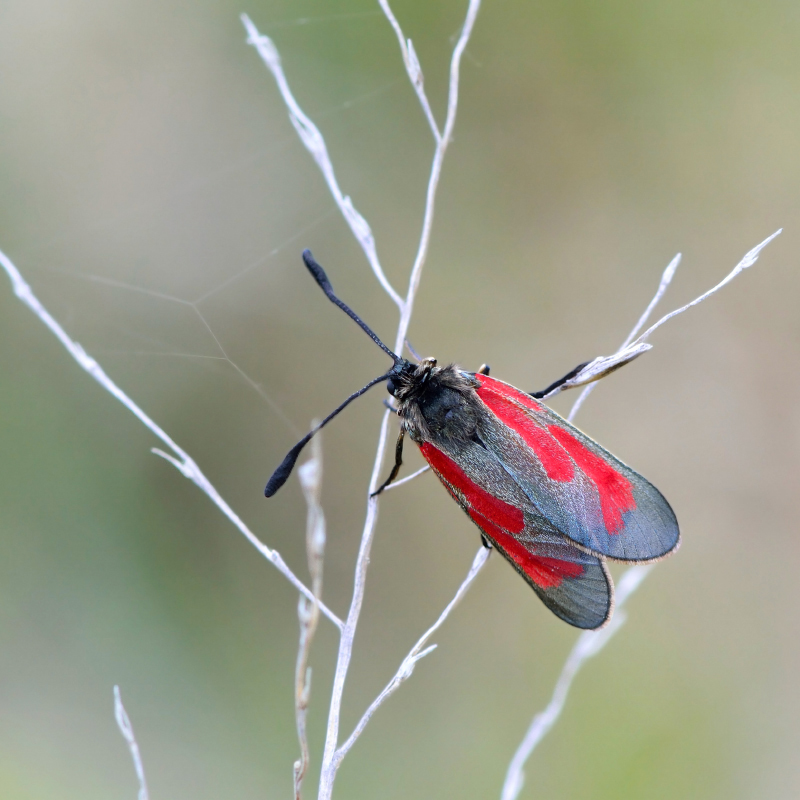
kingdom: Animalia
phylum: Arthropoda
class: Insecta
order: Lepidoptera
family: Zygaenidae
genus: Zygaena
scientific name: Zygaena purpuralis
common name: Transparent burnet
